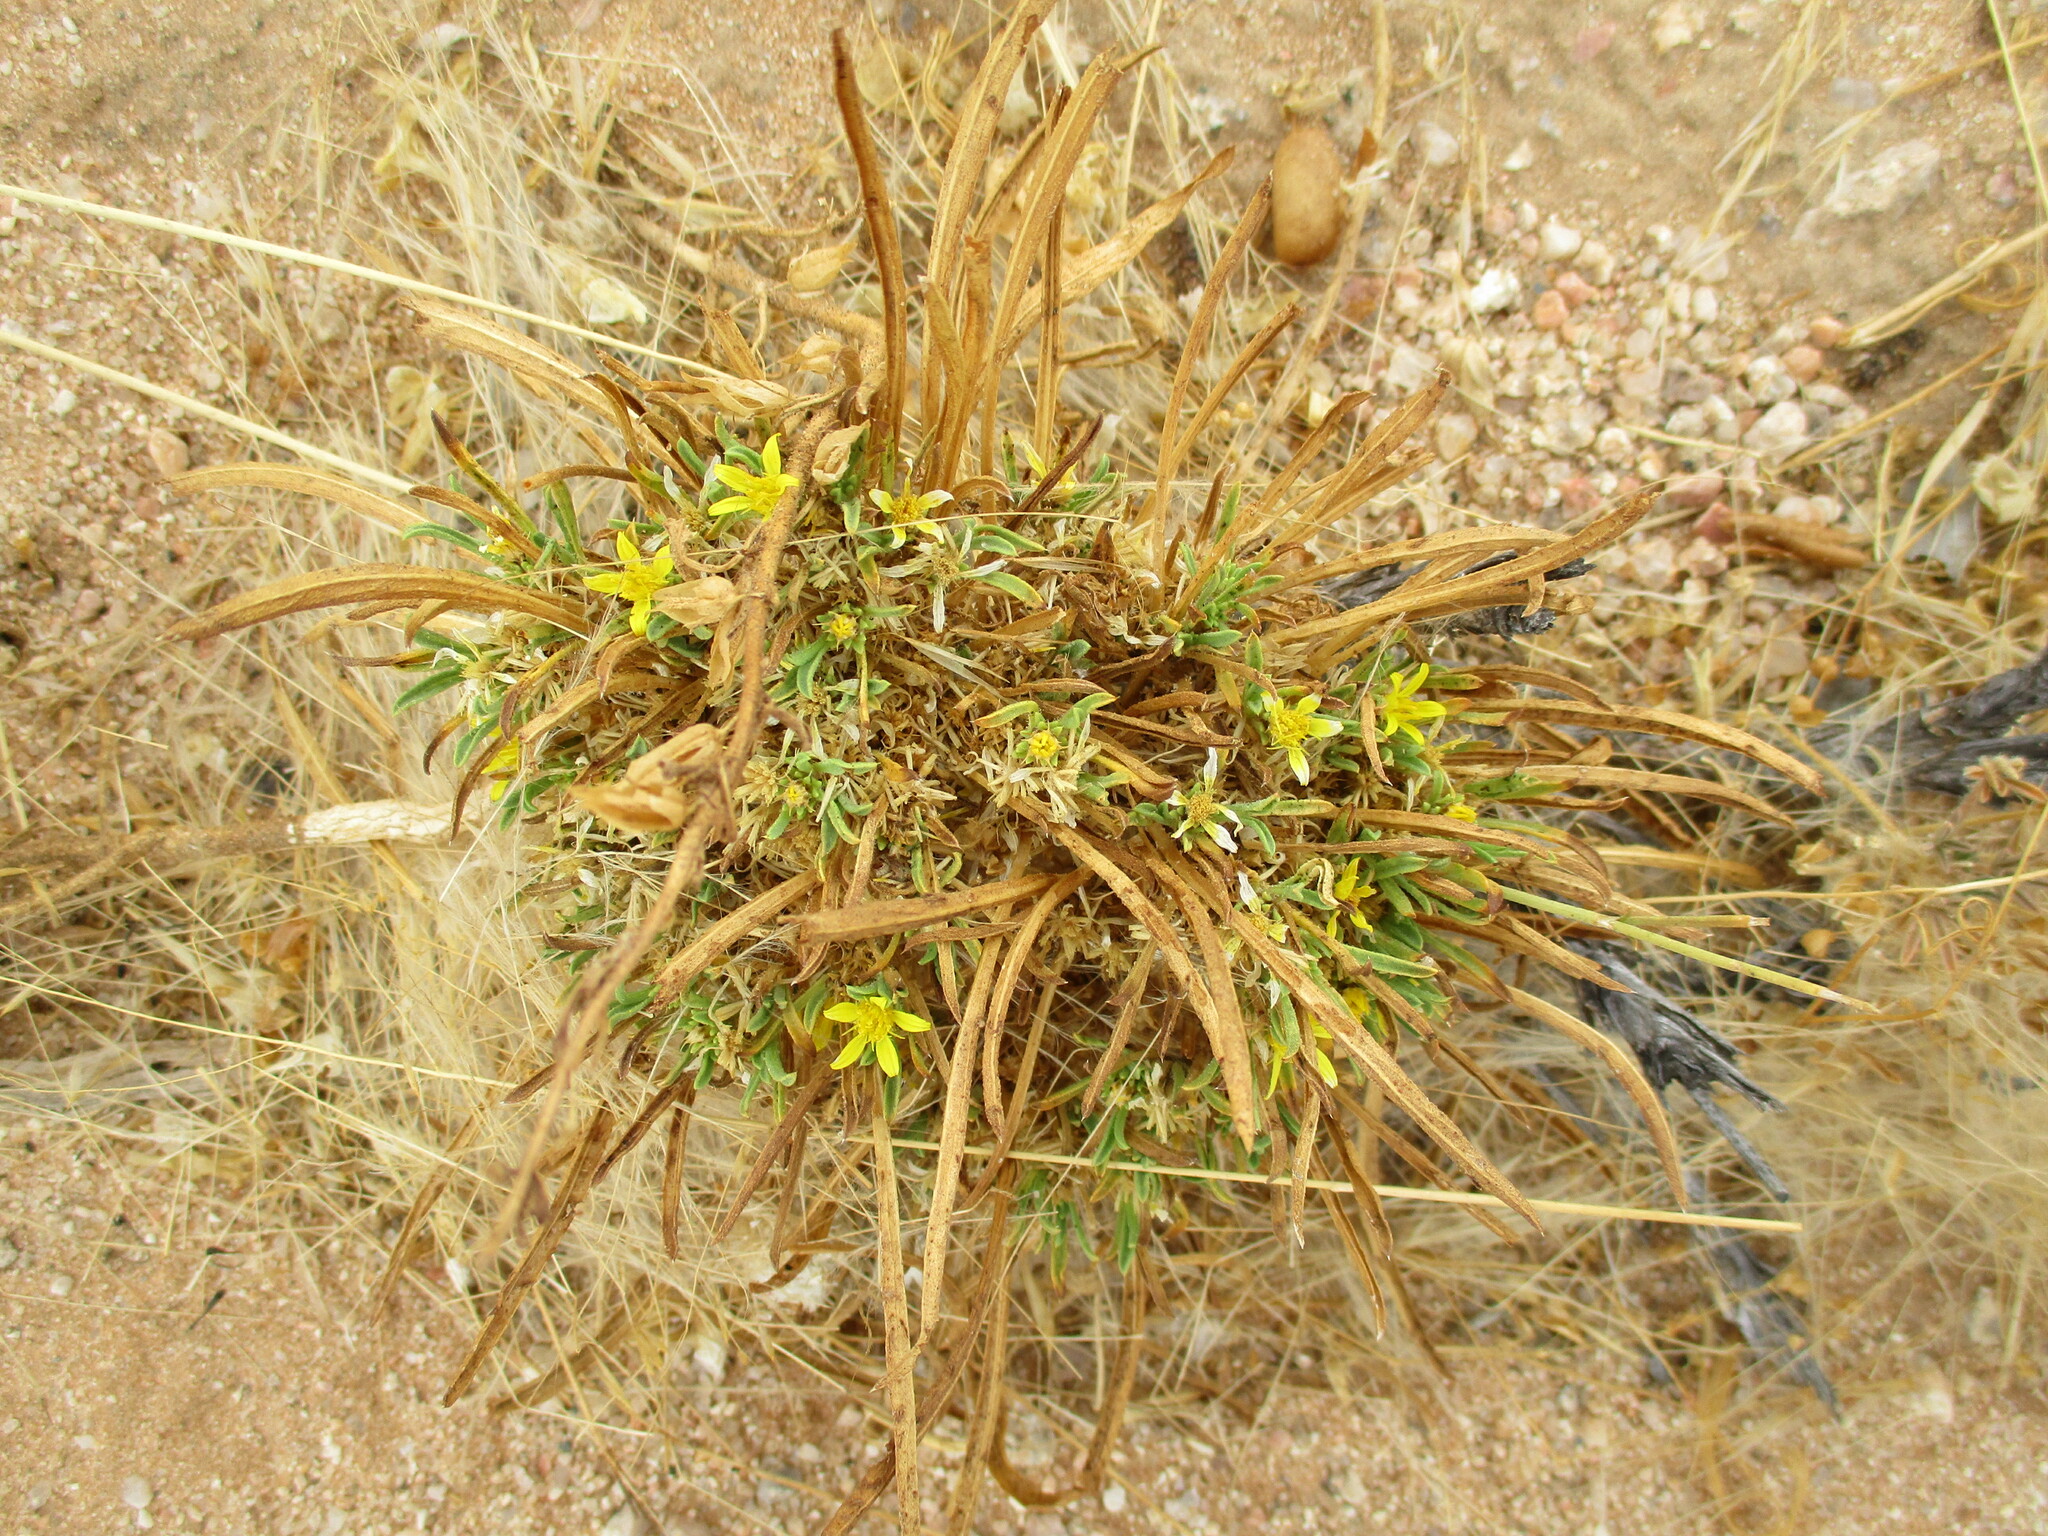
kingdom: Plantae
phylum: Tracheophyta
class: Magnoliopsida
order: Asterales
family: Asteraceae
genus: Geigeria
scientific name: Geigeria ornativa
